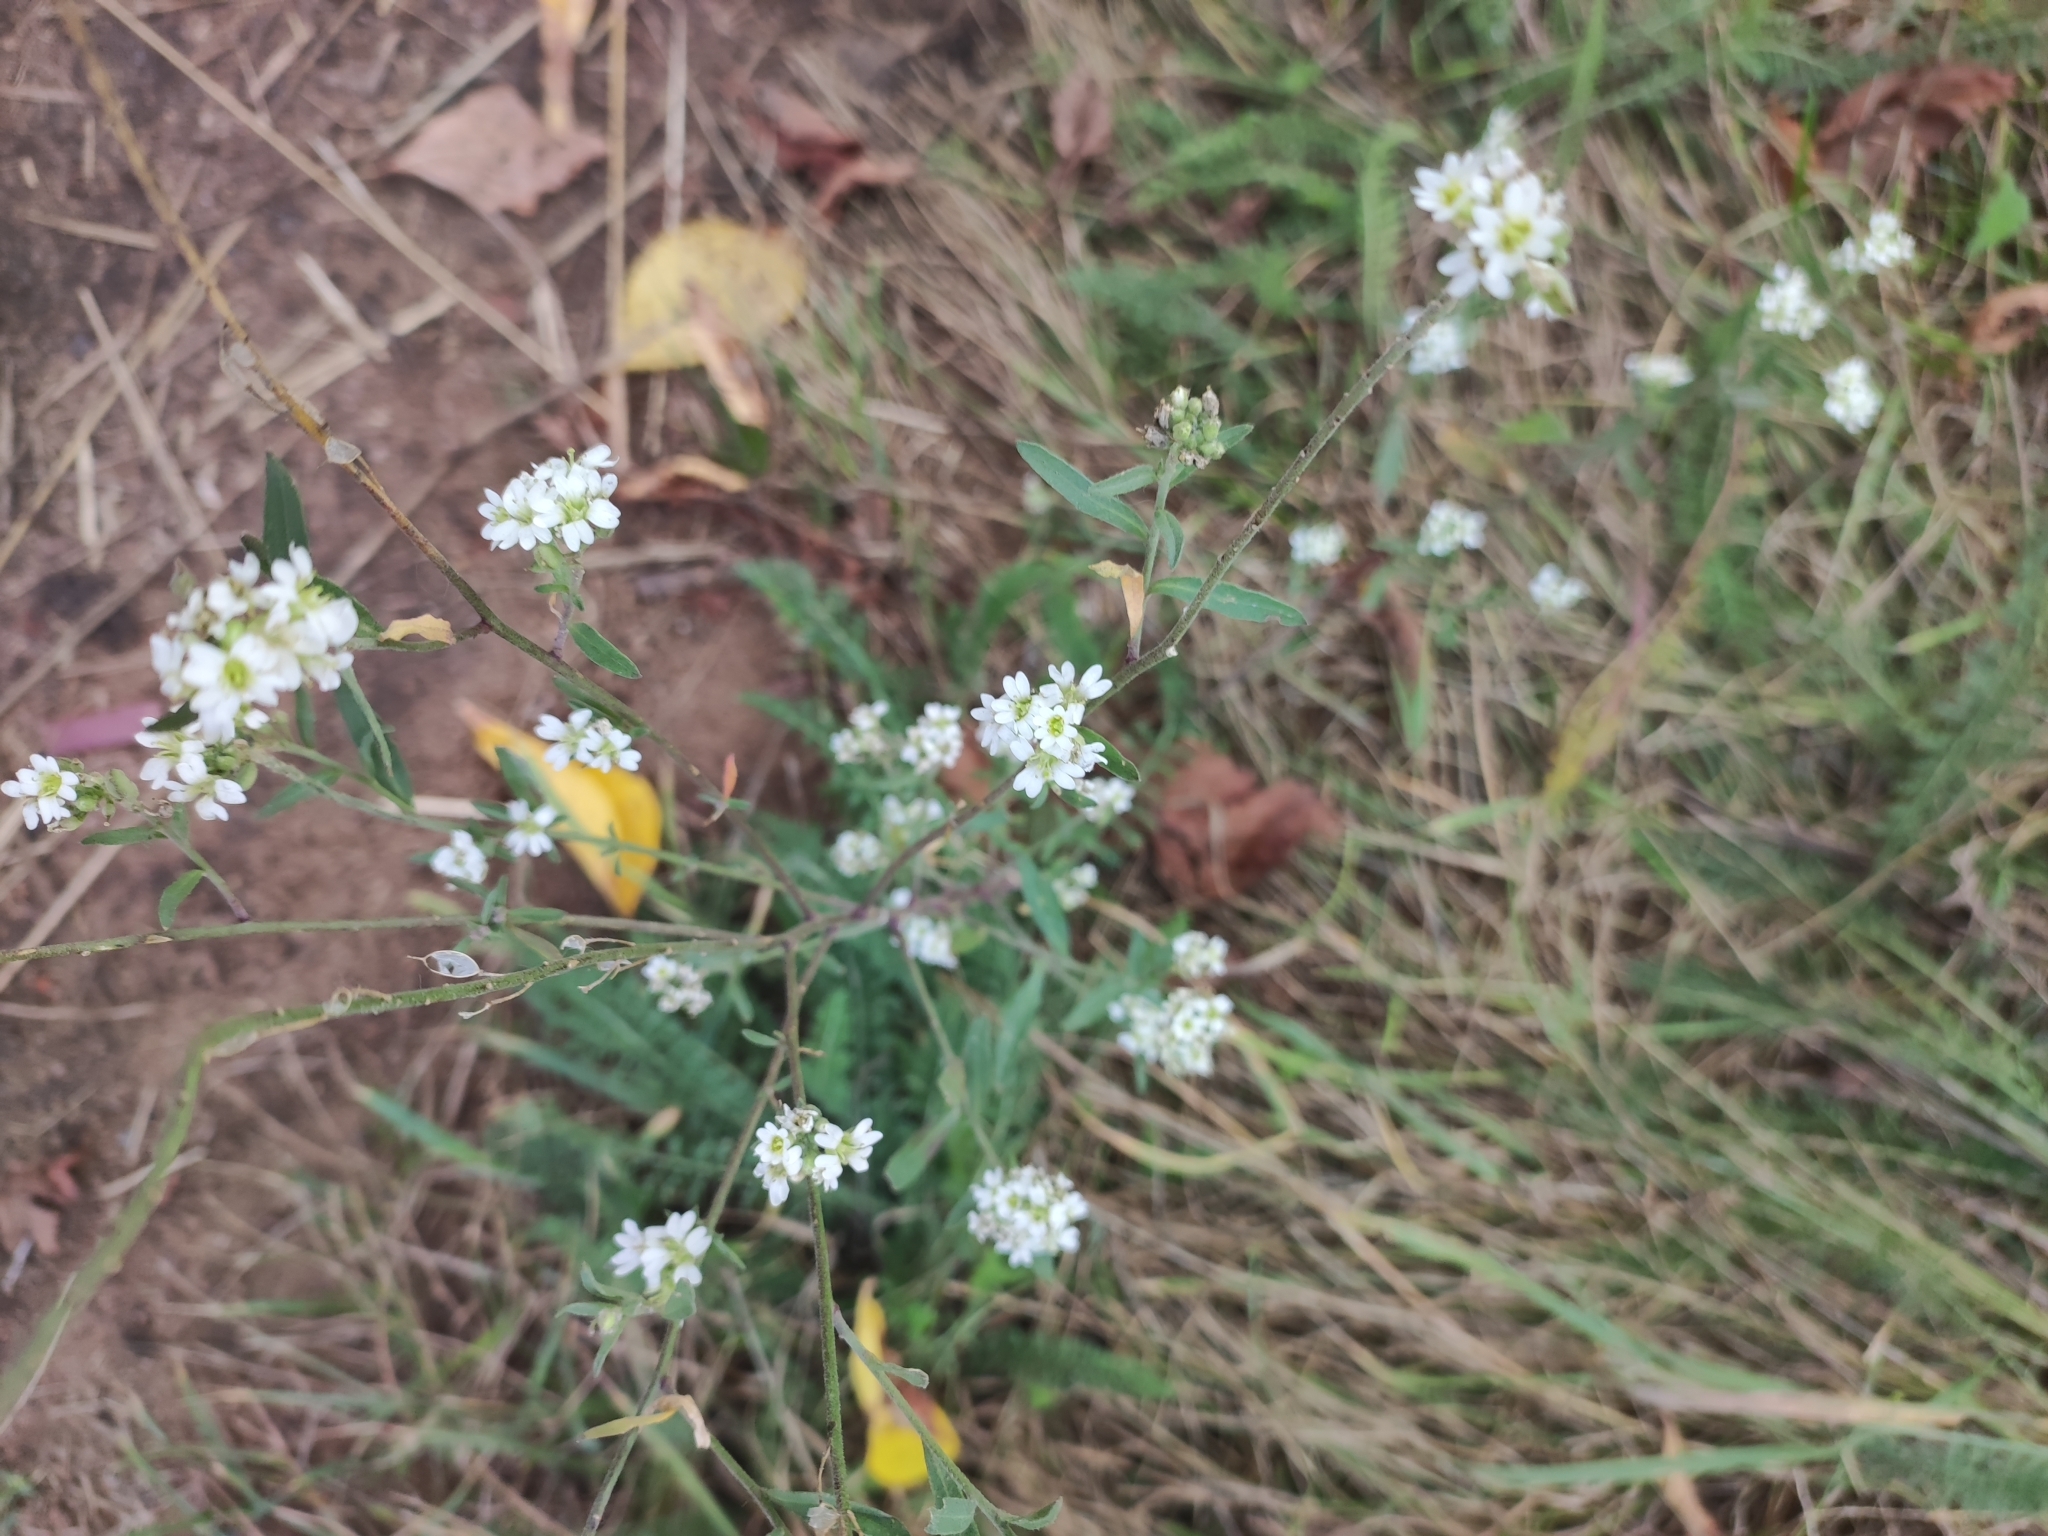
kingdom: Plantae
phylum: Tracheophyta
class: Magnoliopsida
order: Brassicales
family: Brassicaceae
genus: Berteroa
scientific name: Berteroa incana
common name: Hoary alison
